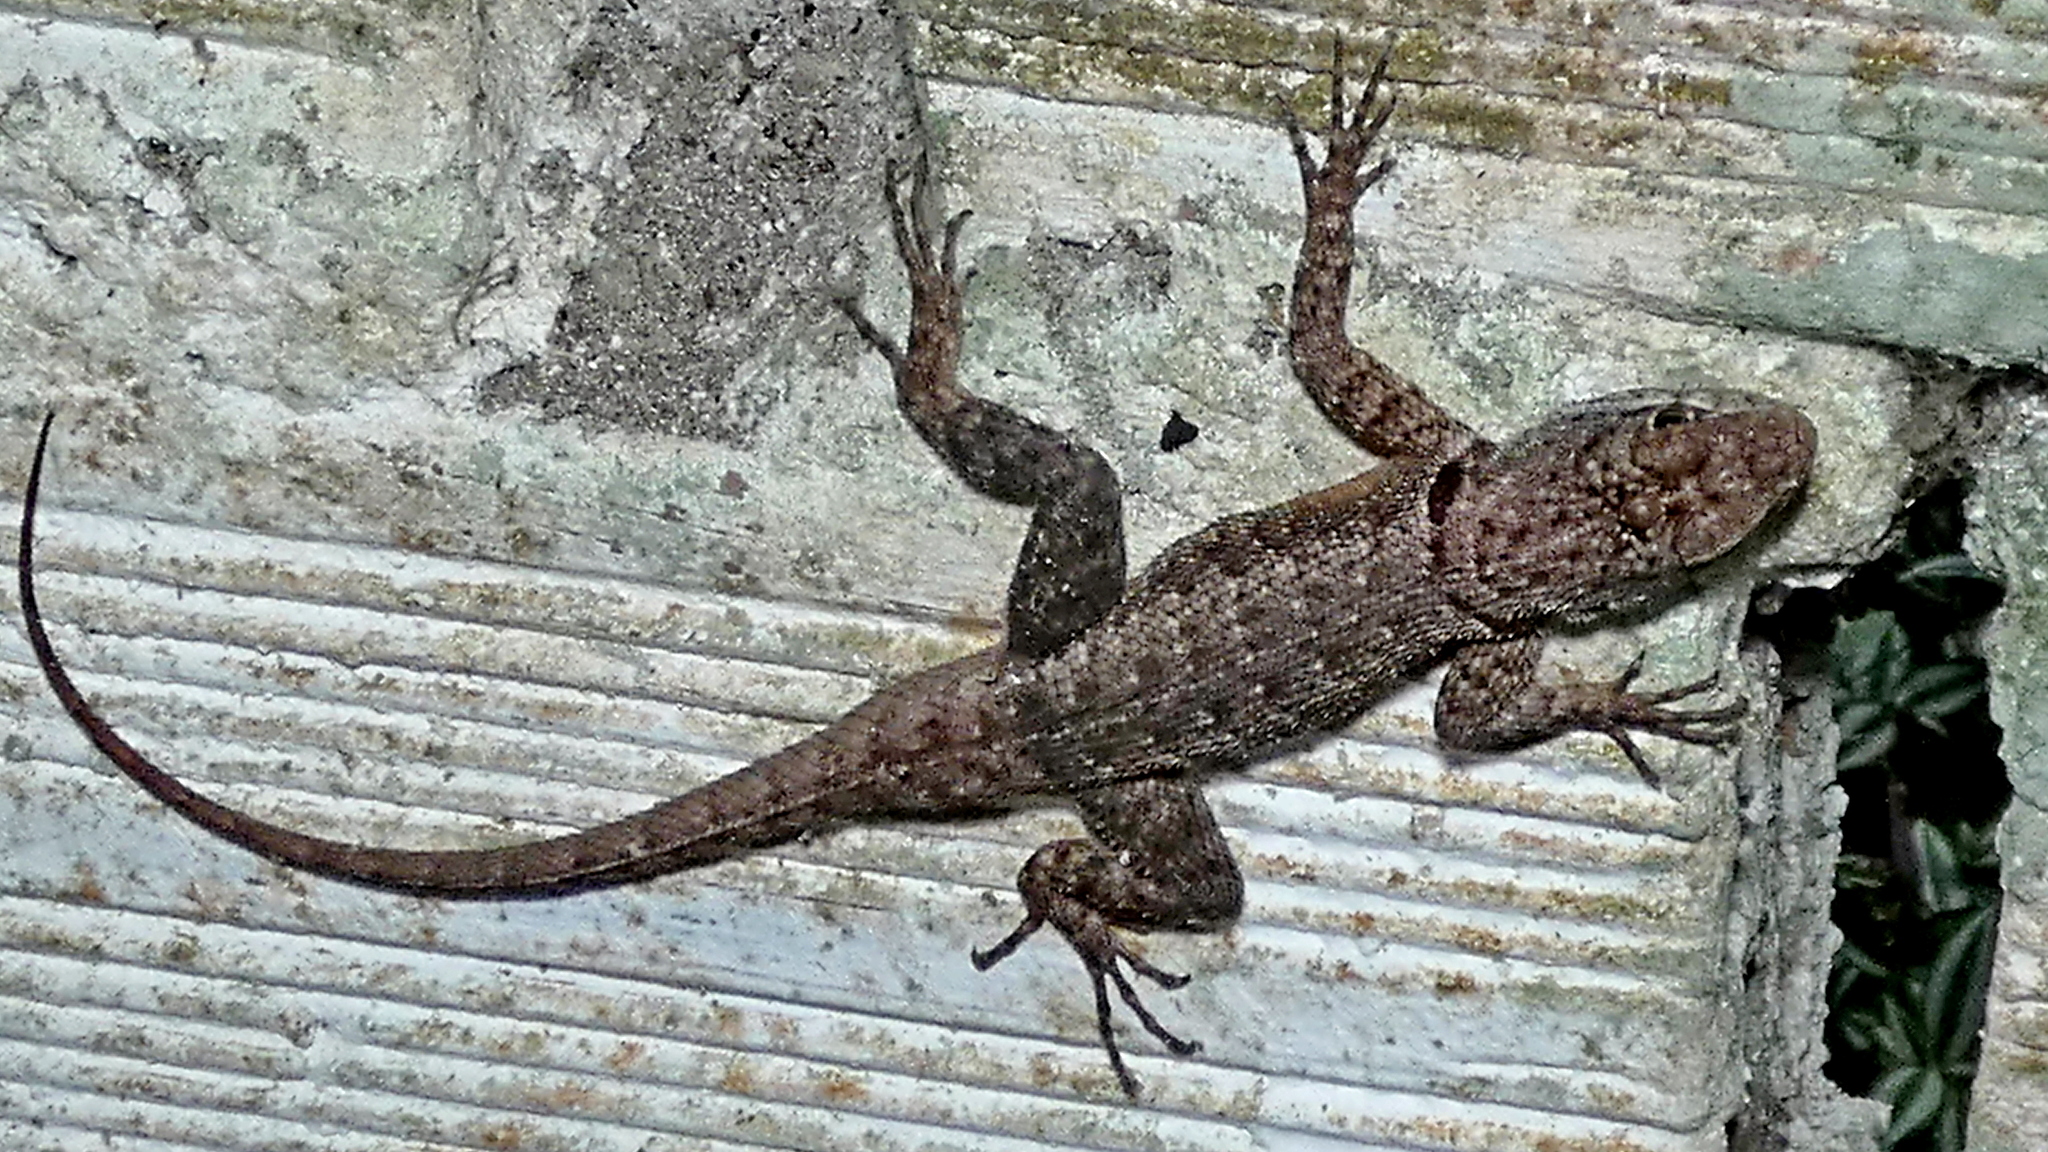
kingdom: Animalia
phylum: Chordata
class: Squamata
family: Tropiduridae
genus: Tropidurus
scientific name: Tropidurus hispidus
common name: Peters' lava lizard
